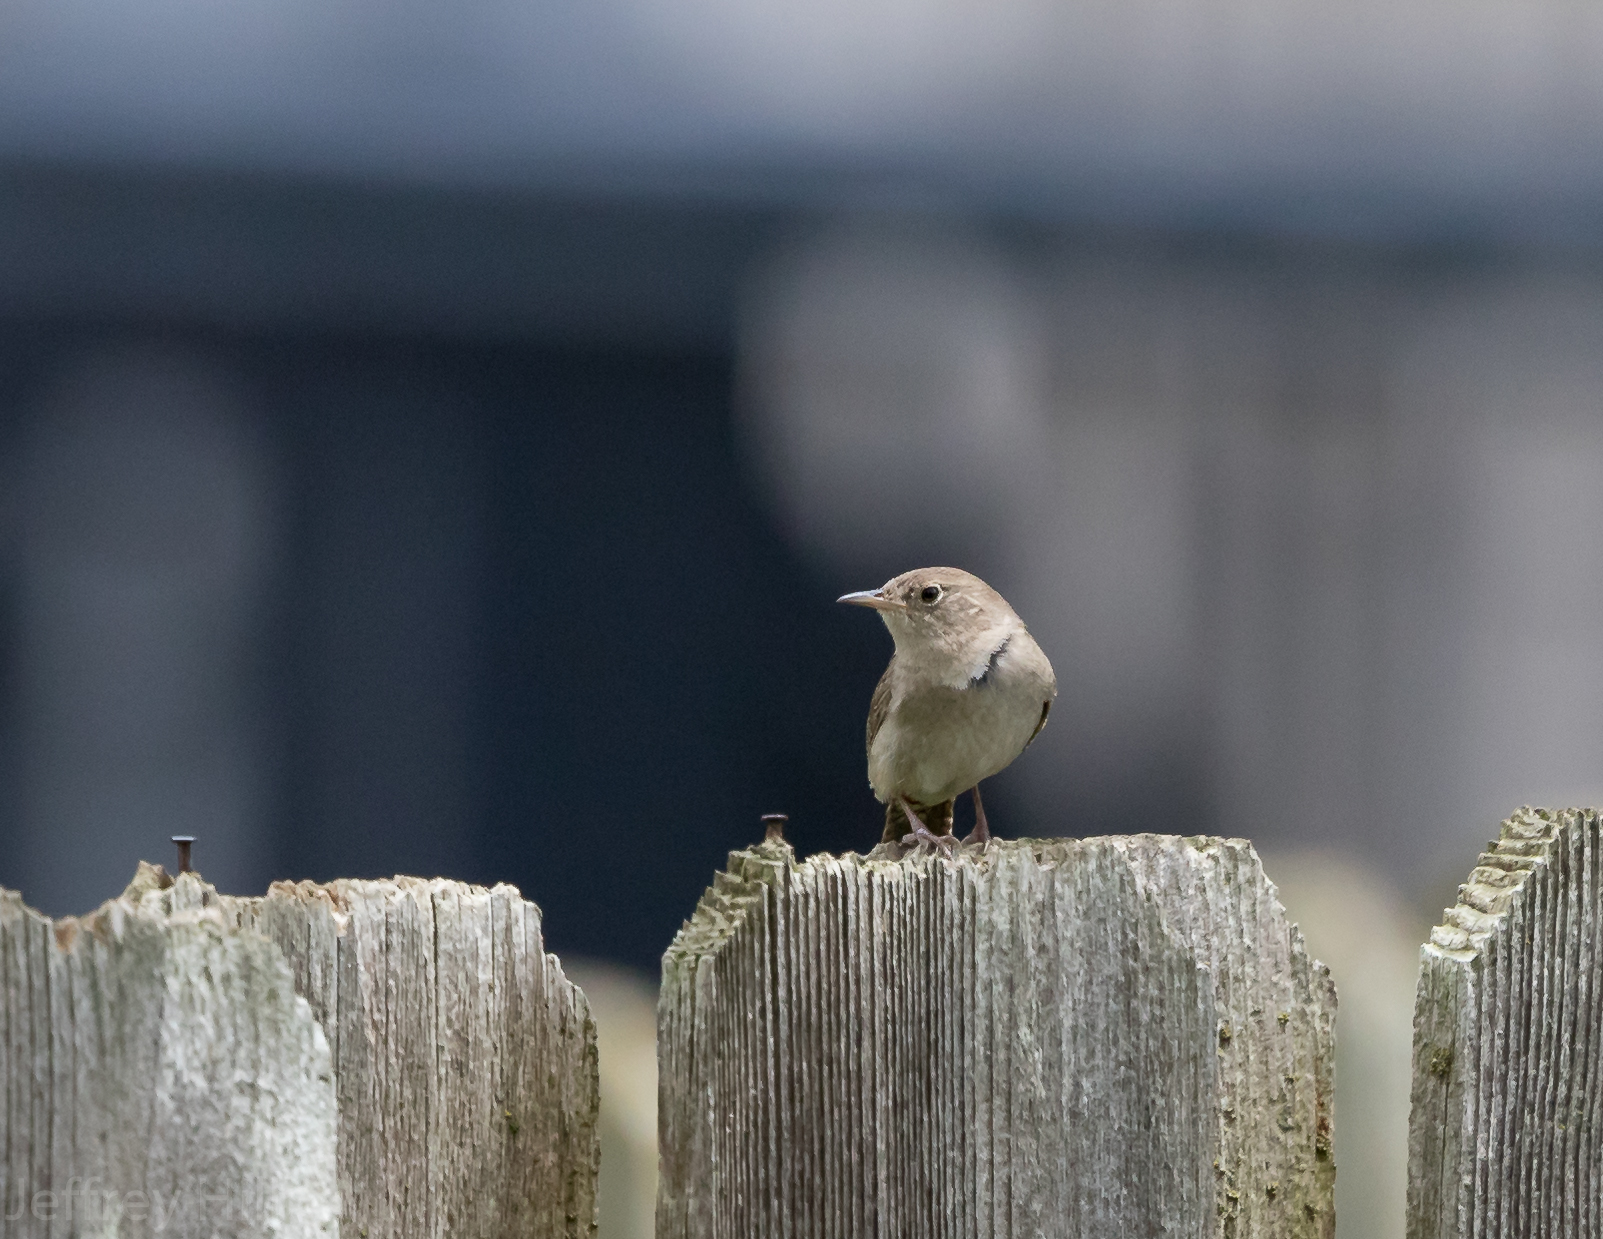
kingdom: Animalia
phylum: Chordata
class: Aves
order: Passeriformes
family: Troglodytidae
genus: Troglodytes
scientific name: Troglodytes aedon
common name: House wren
